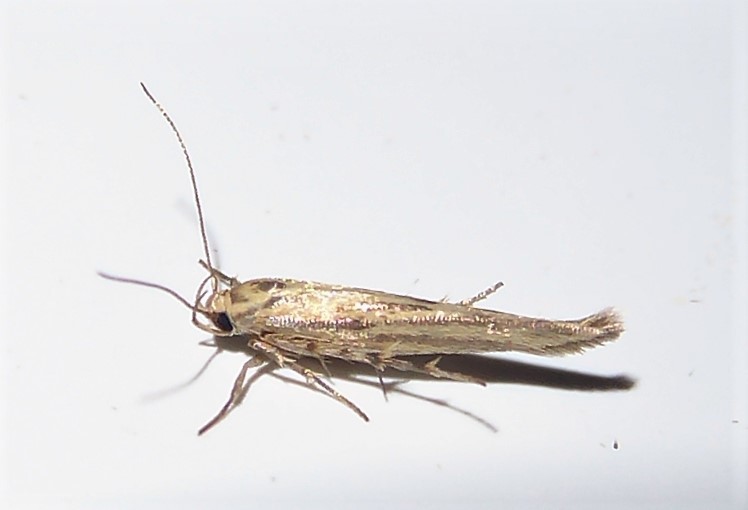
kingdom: Animalia
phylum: Arthropoda
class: Insecta
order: Lepidoptera
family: Stathmopodidae
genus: Stathmopoda
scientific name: Stathmopoda plumbiflua
